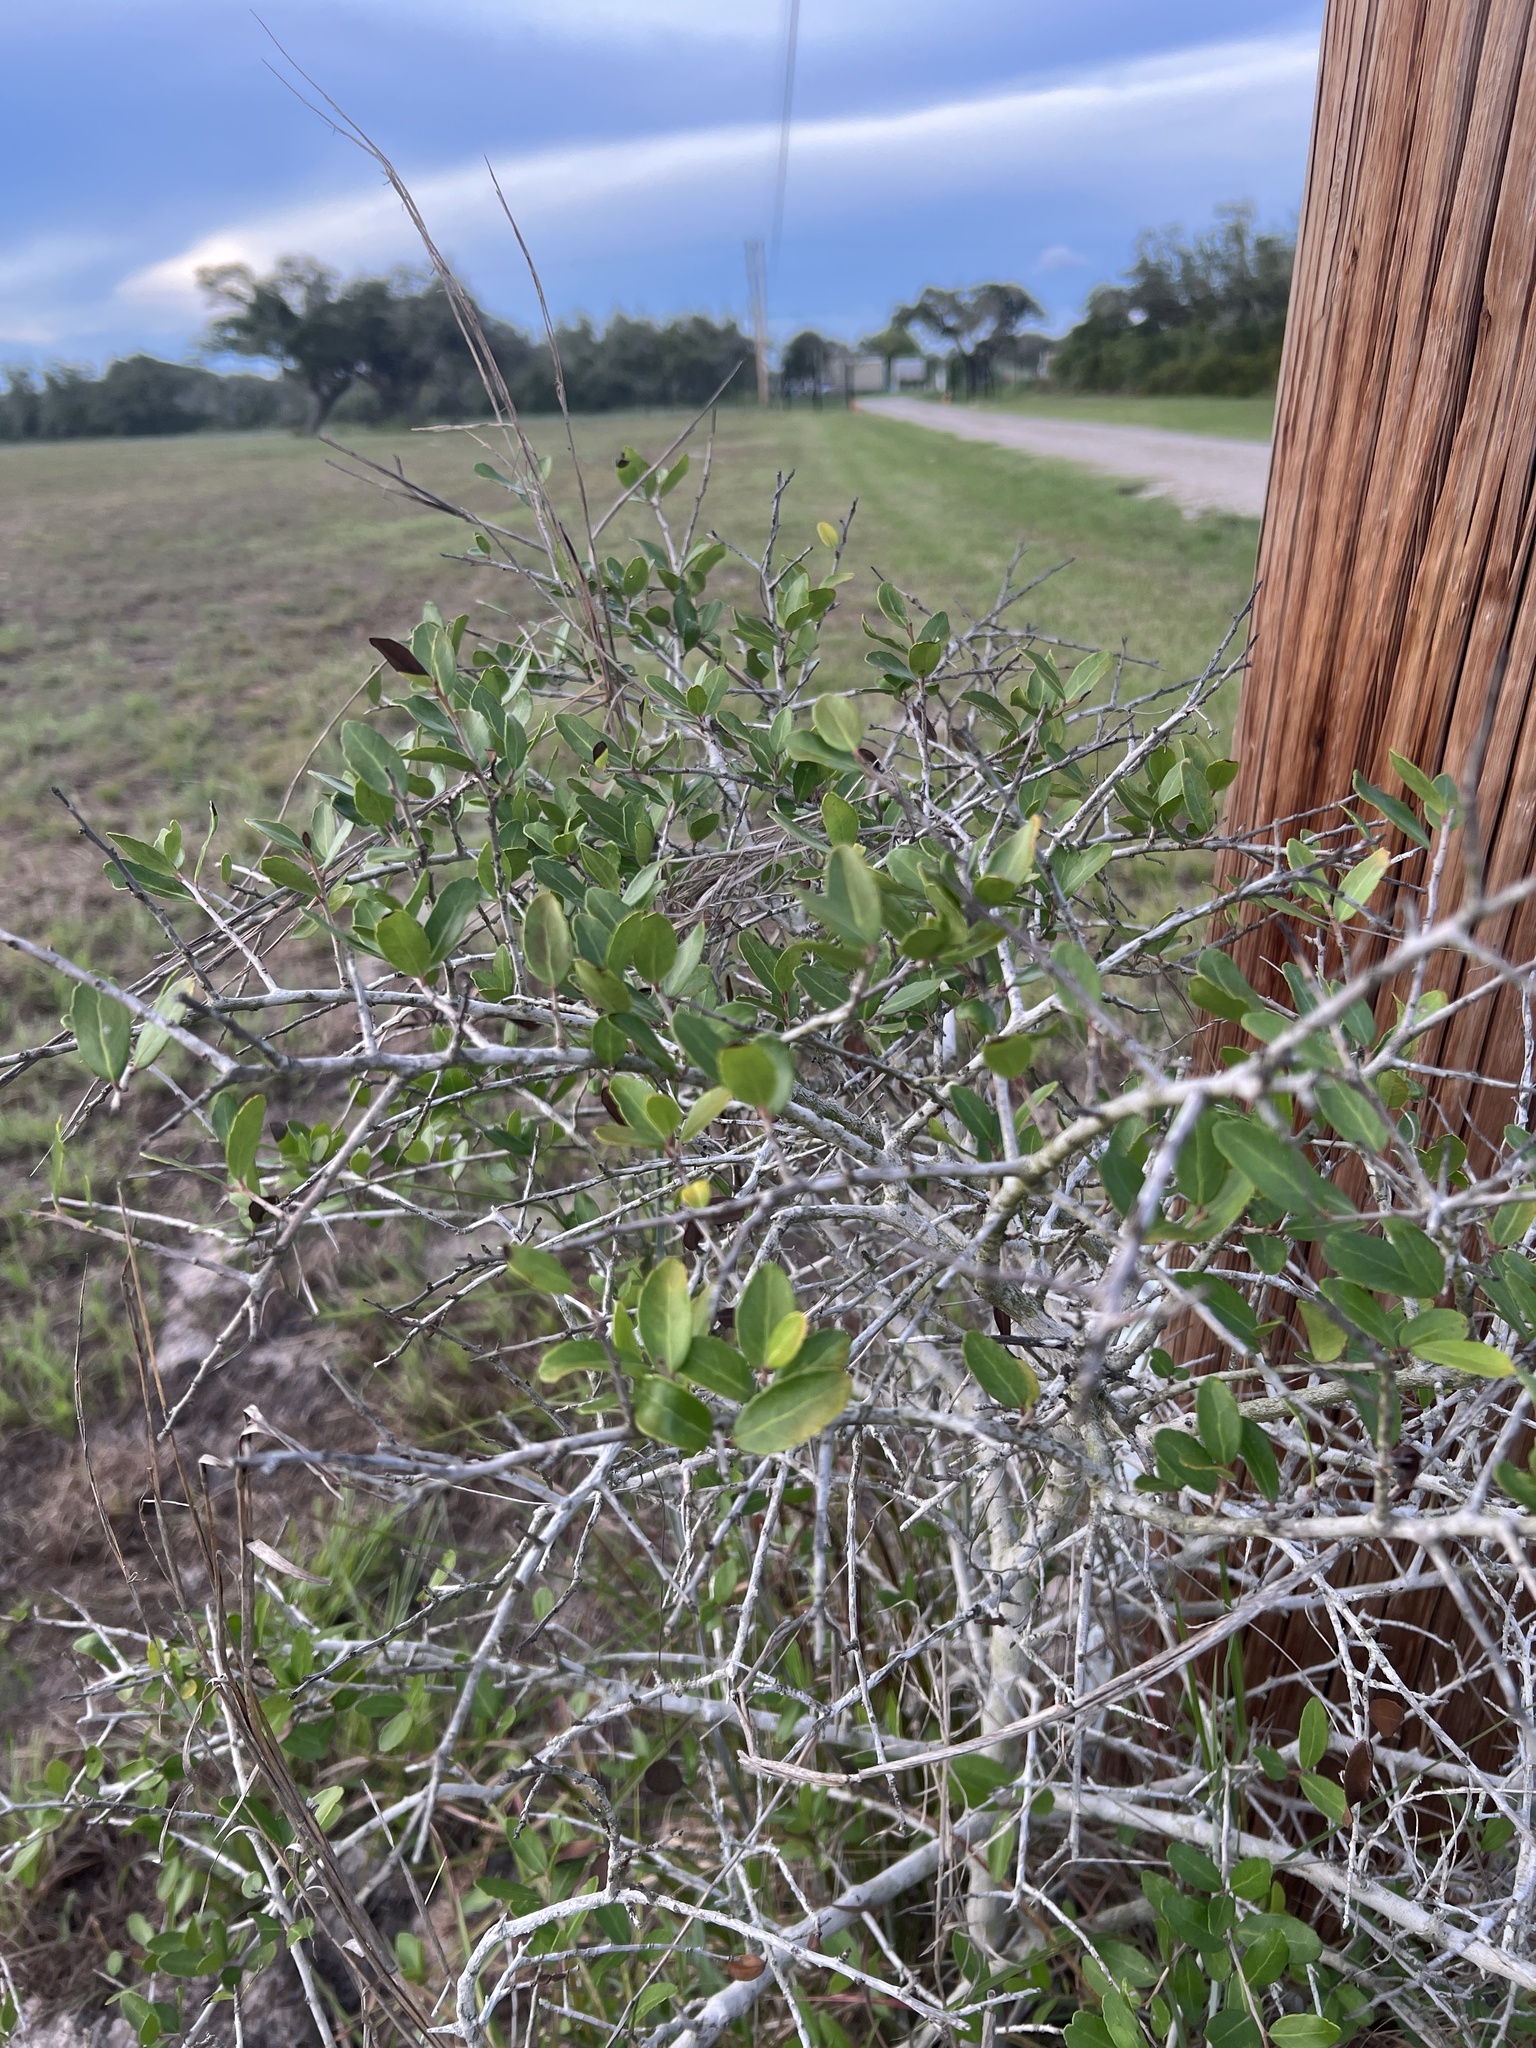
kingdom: Plantae
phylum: Tracheophyta
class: Magnoliopsida
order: Aquifoliales
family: Aquifoliaceae
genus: Ilex
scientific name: Ilex vomitoria
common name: Yaupon holly
